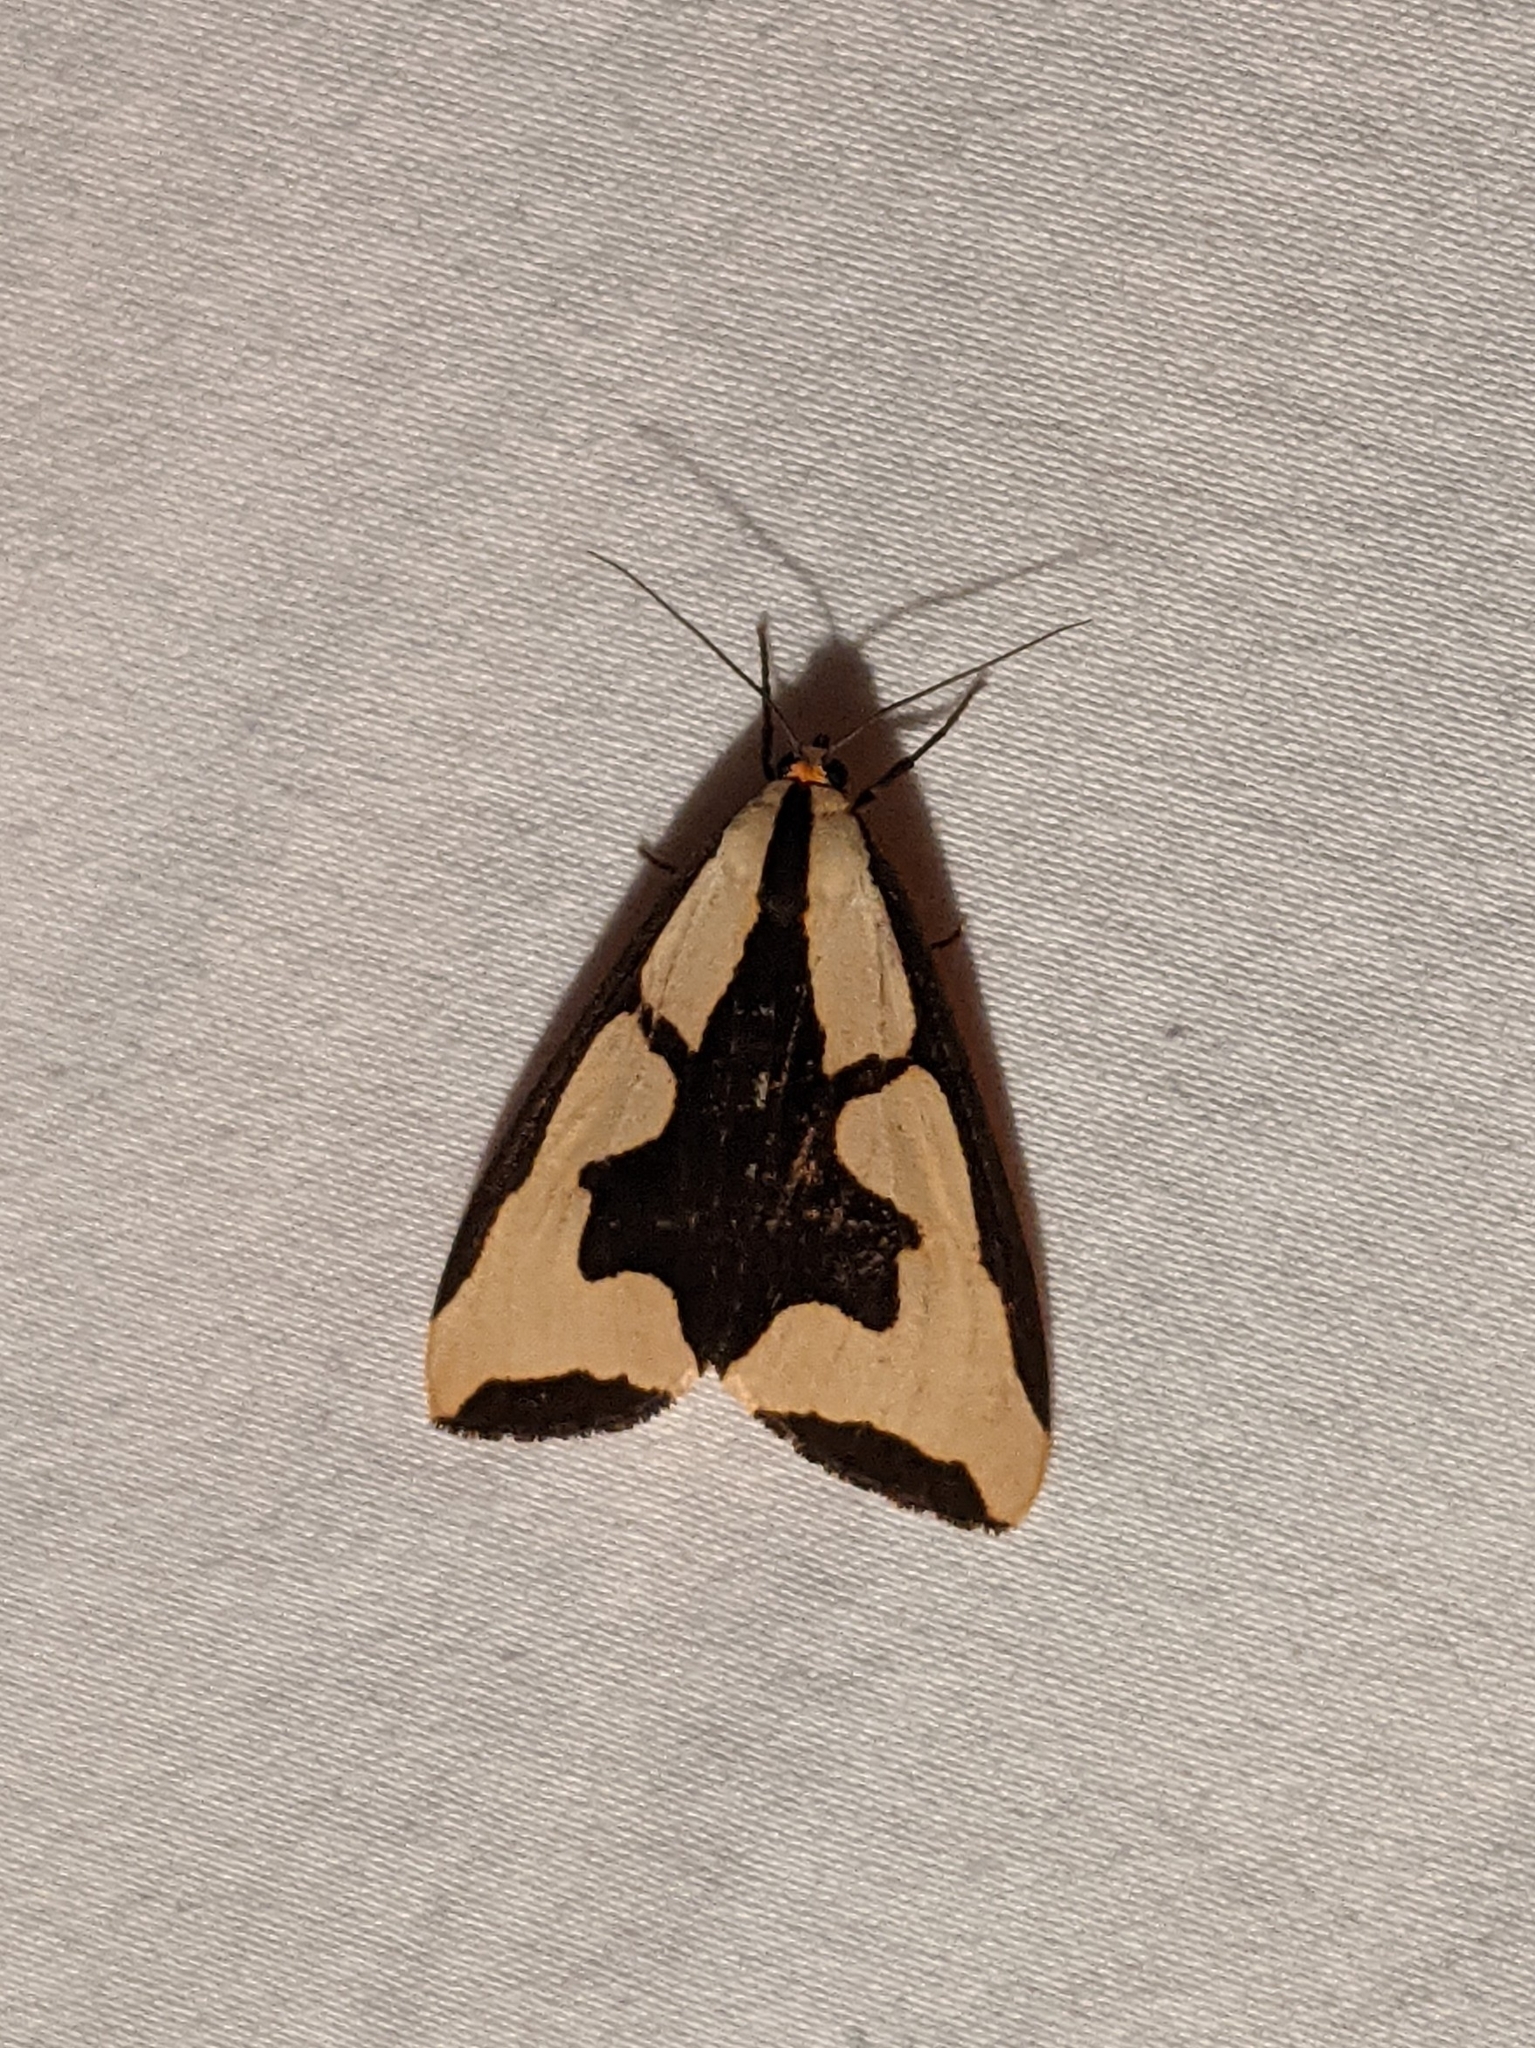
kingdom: Animalia
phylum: Arthropoda
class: Insecta
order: Lepidoptera
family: Erebidae
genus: Haploa
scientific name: Haploa clymene
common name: Clymene moth
